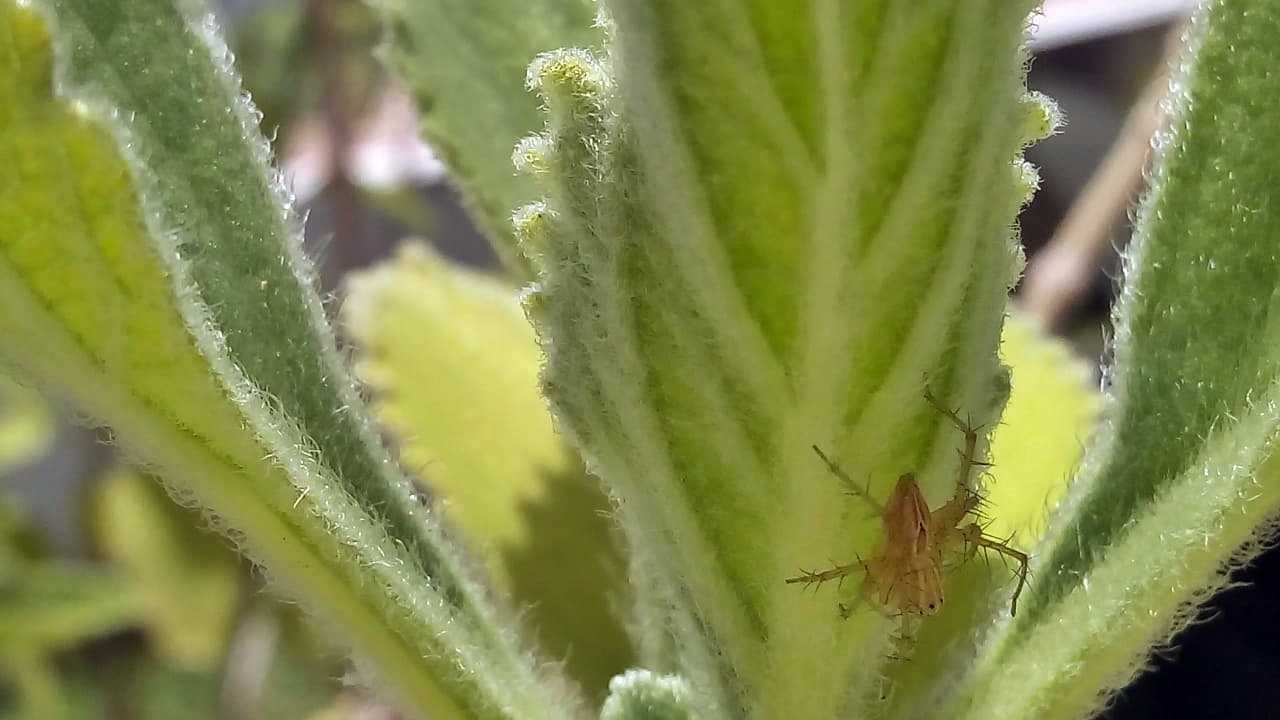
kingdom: Animalia
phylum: Arthropoda
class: Arachnida
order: Araneae
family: Oxyopidae
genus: Oxyopes
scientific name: Oxyopes salticus
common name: Lynx spiders
